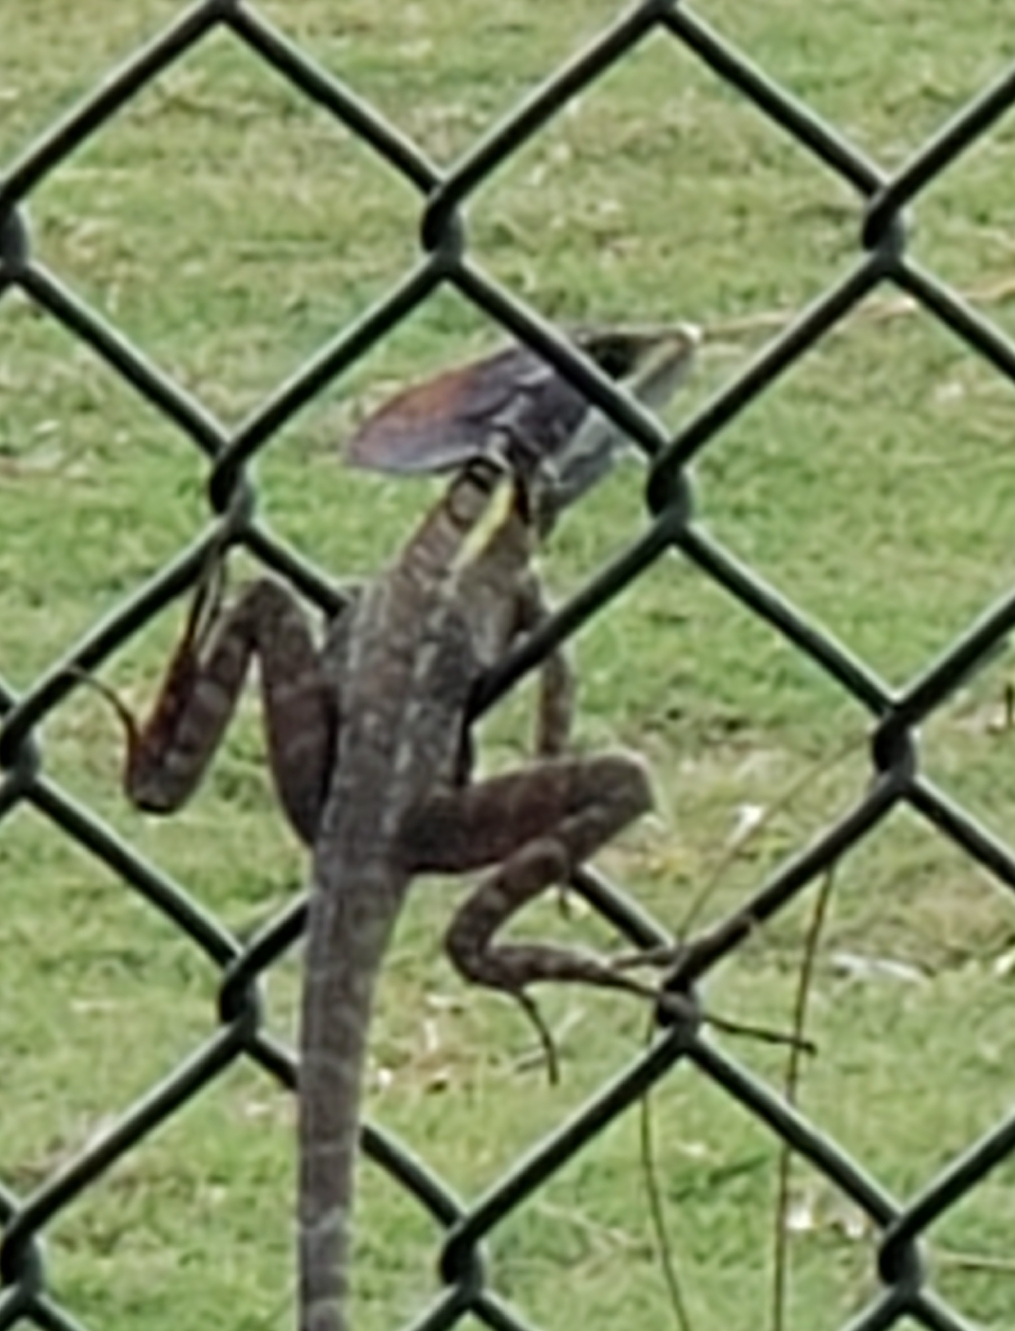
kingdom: Animalia
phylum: Chordata
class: Squamata
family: Corytophanidae
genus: Basiliscus
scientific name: Basiliscus vittatus
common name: Brown basilisk
